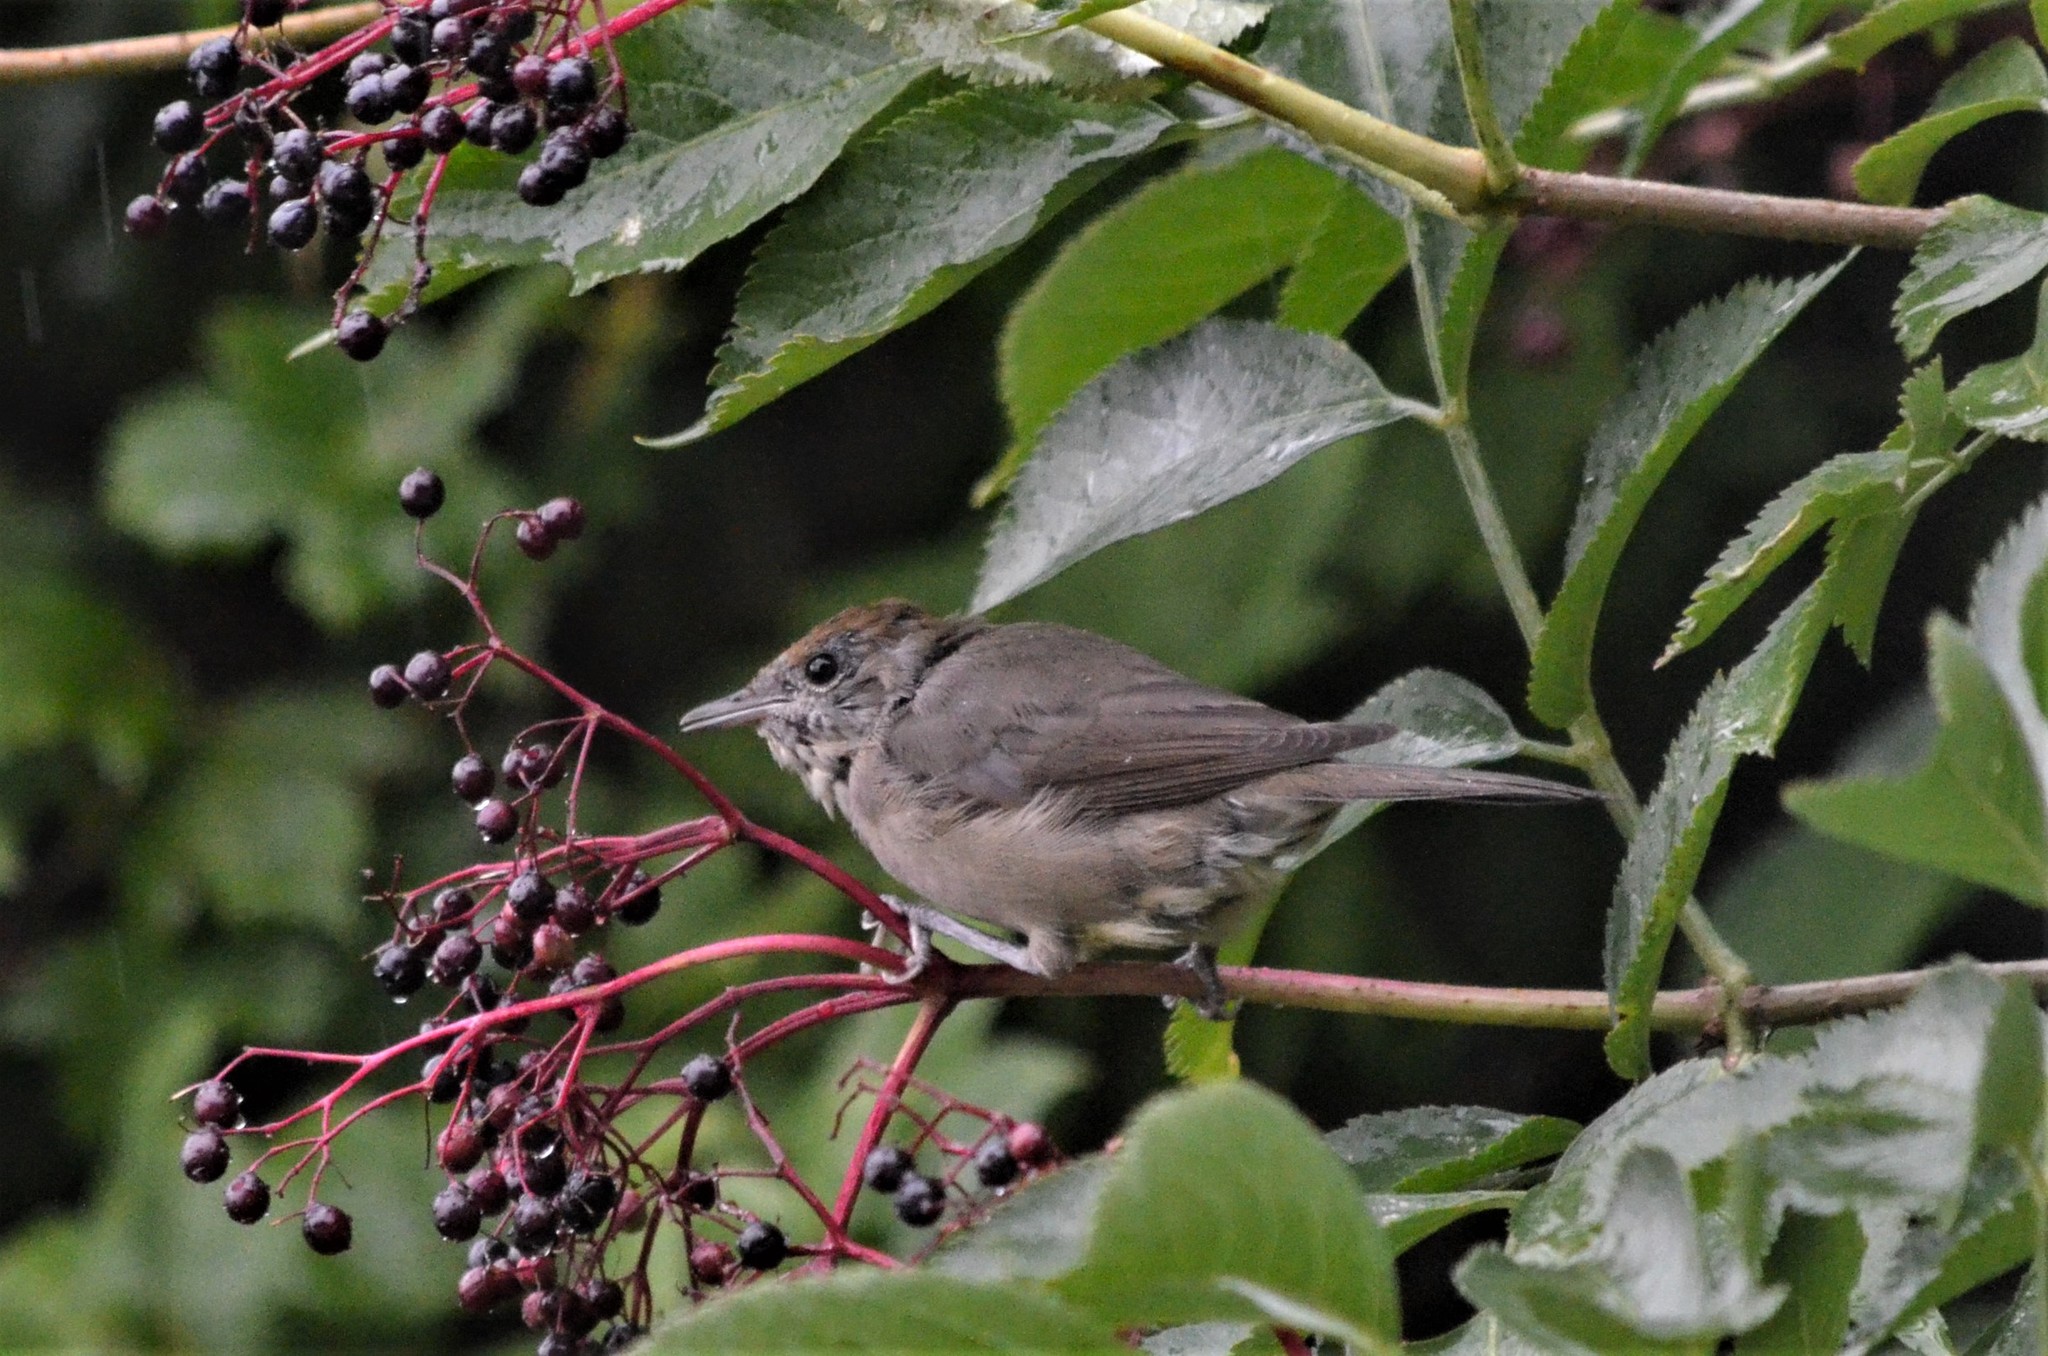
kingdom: Animalia
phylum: Chordata
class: Aves
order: Passeriformes
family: Sylviidae
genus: Sylvia
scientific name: Sylvia atricapilla
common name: Eurasian blackcap
